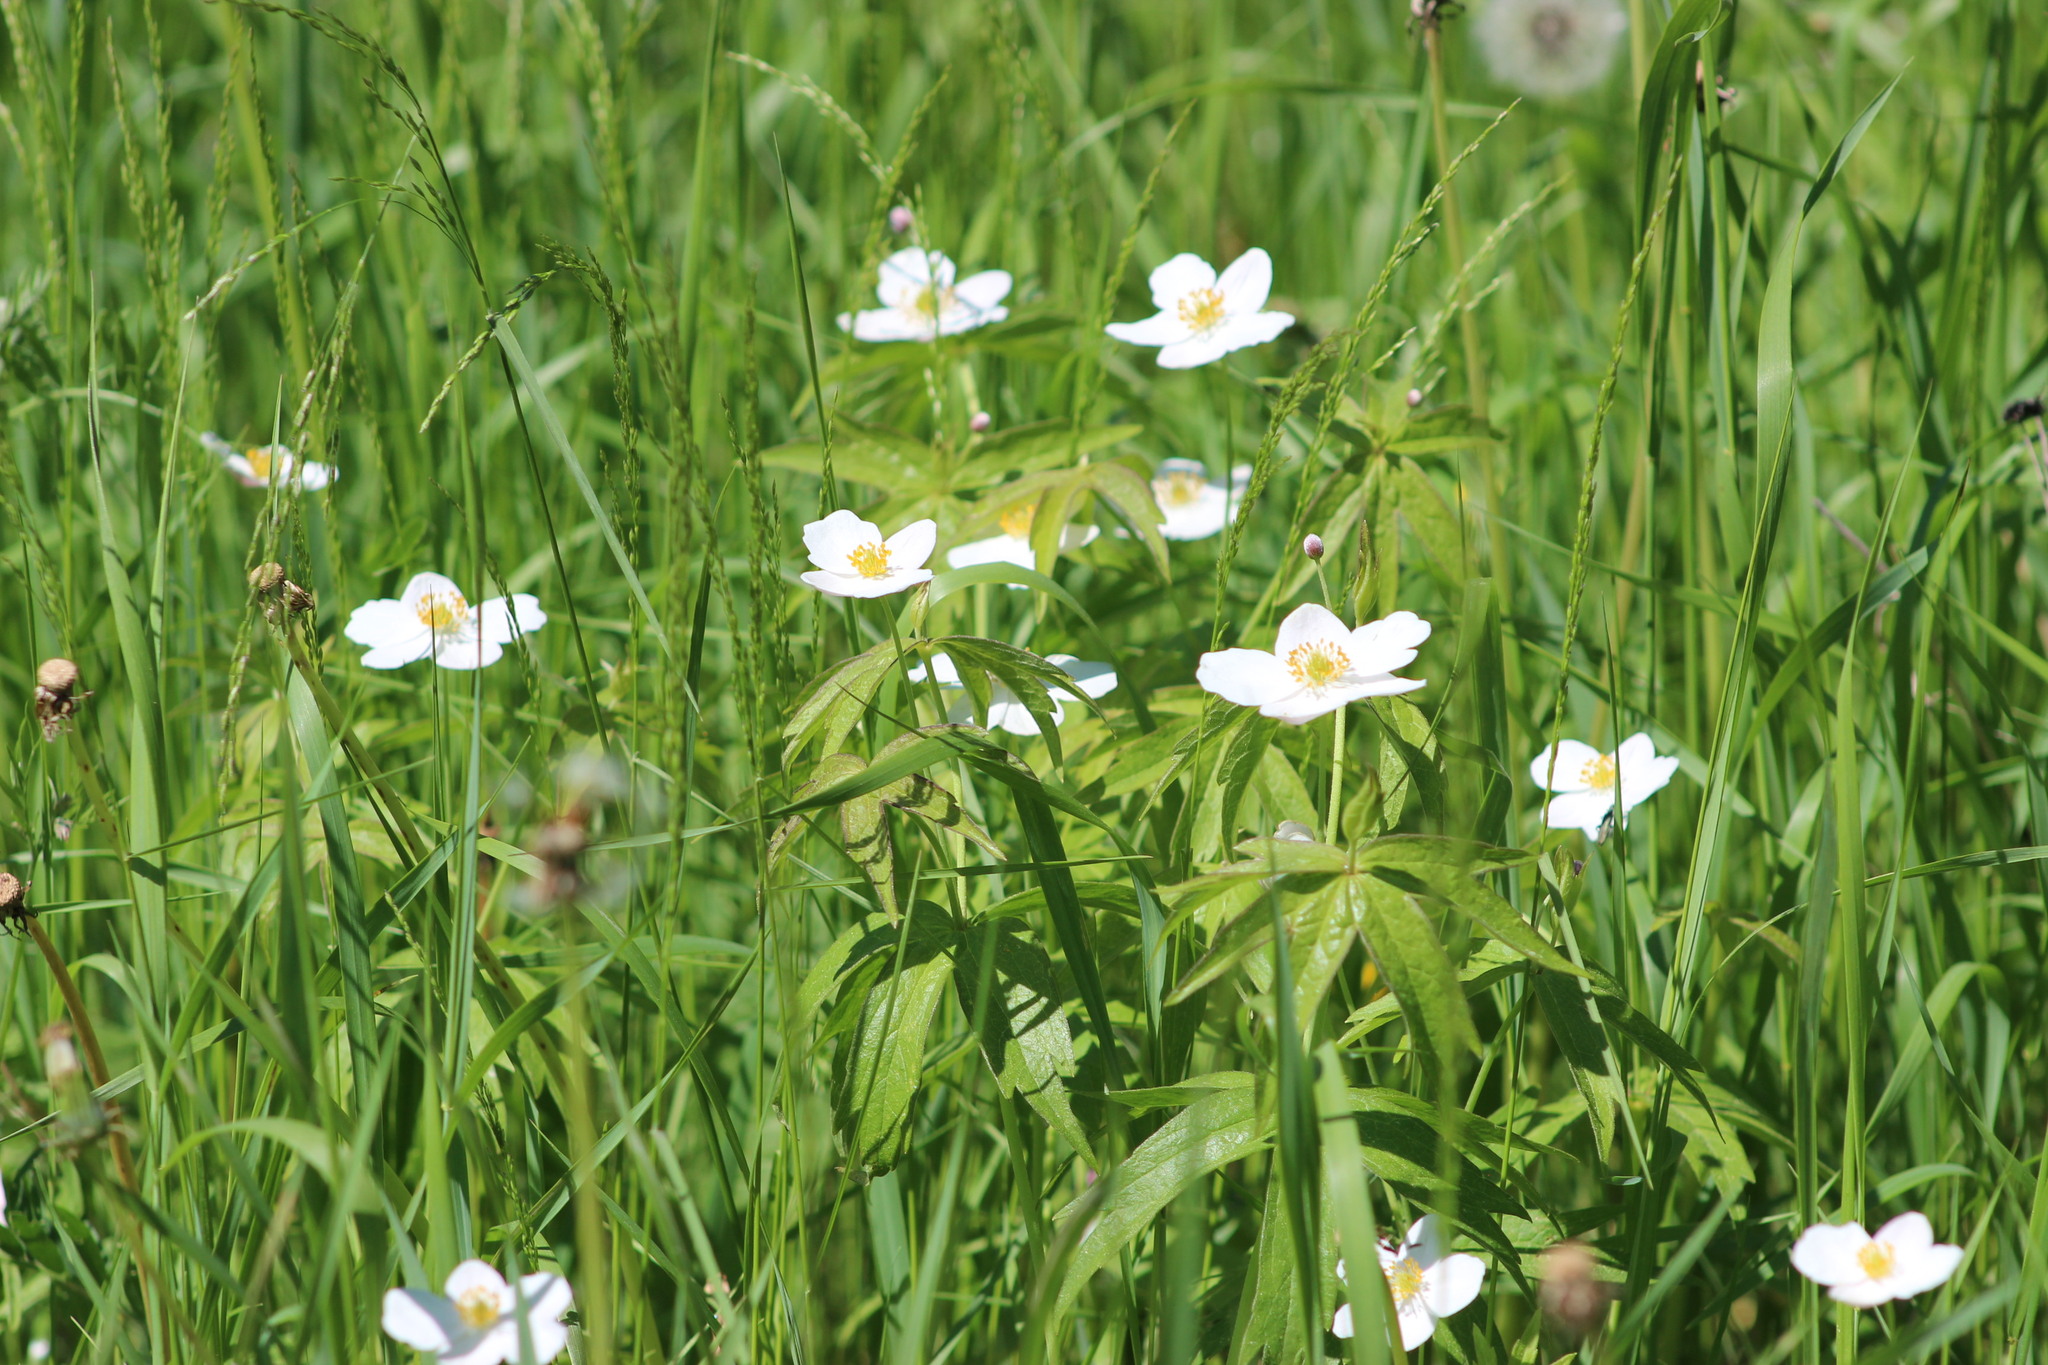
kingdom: Plantae
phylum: Tracheophyta
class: Magnoliopsida
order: Ranunculales
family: Ranunculaceae
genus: Anemonastrum
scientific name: Anemonastrum dichotomum
